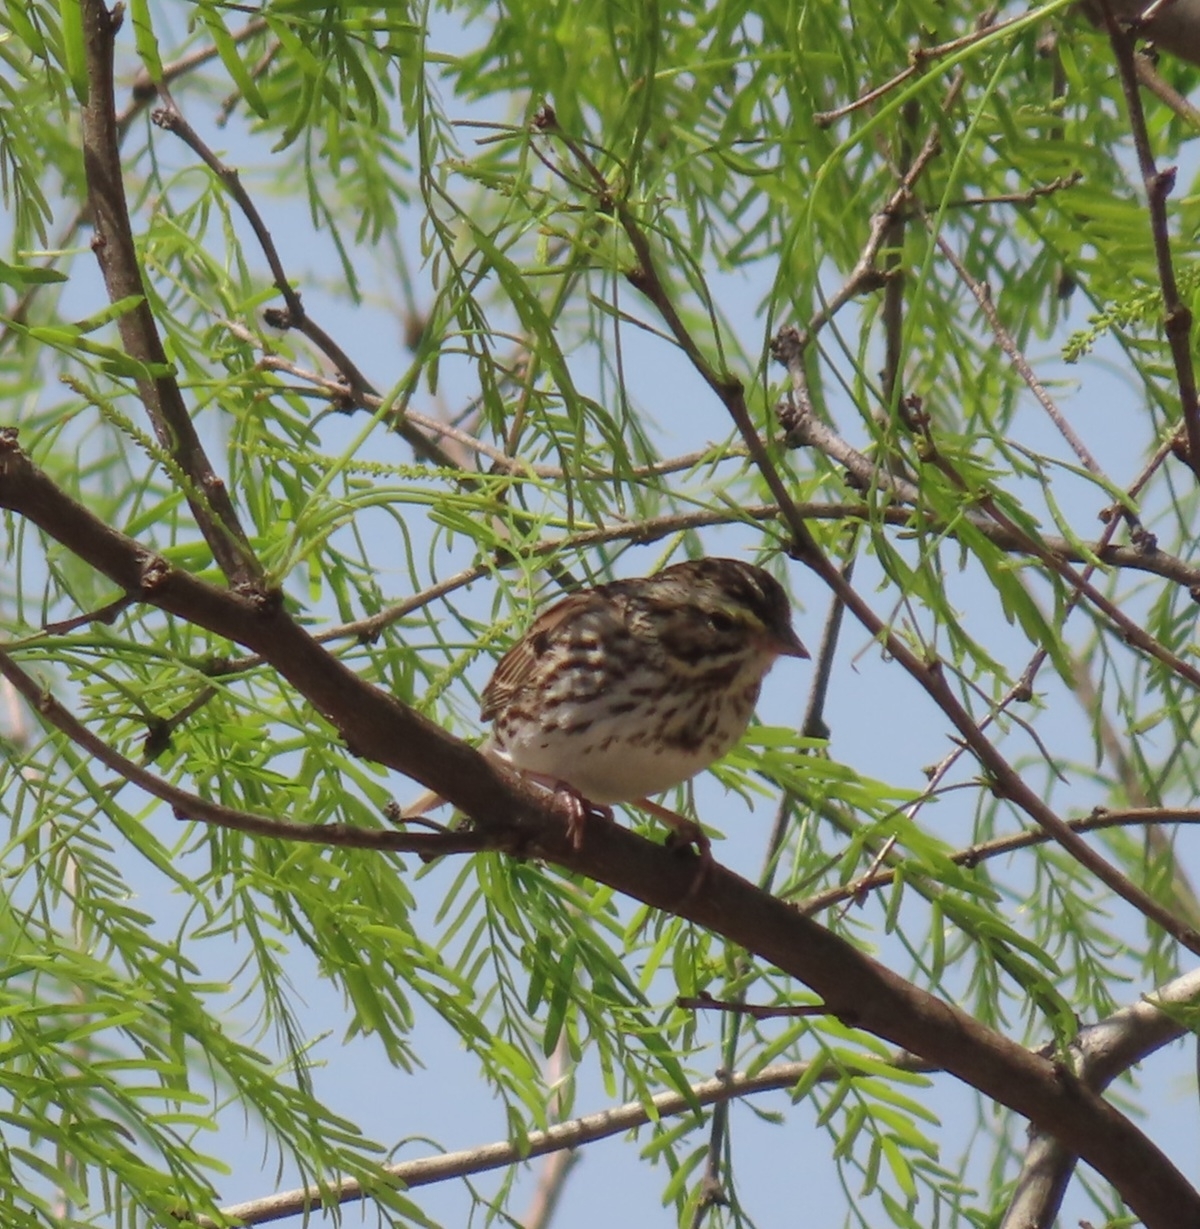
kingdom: Animalia
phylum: Chordata
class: Aves
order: Passeriformes
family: Passerellidae
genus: Passerculus
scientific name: Passerculus sandwichensis
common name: Savannah sparrow
